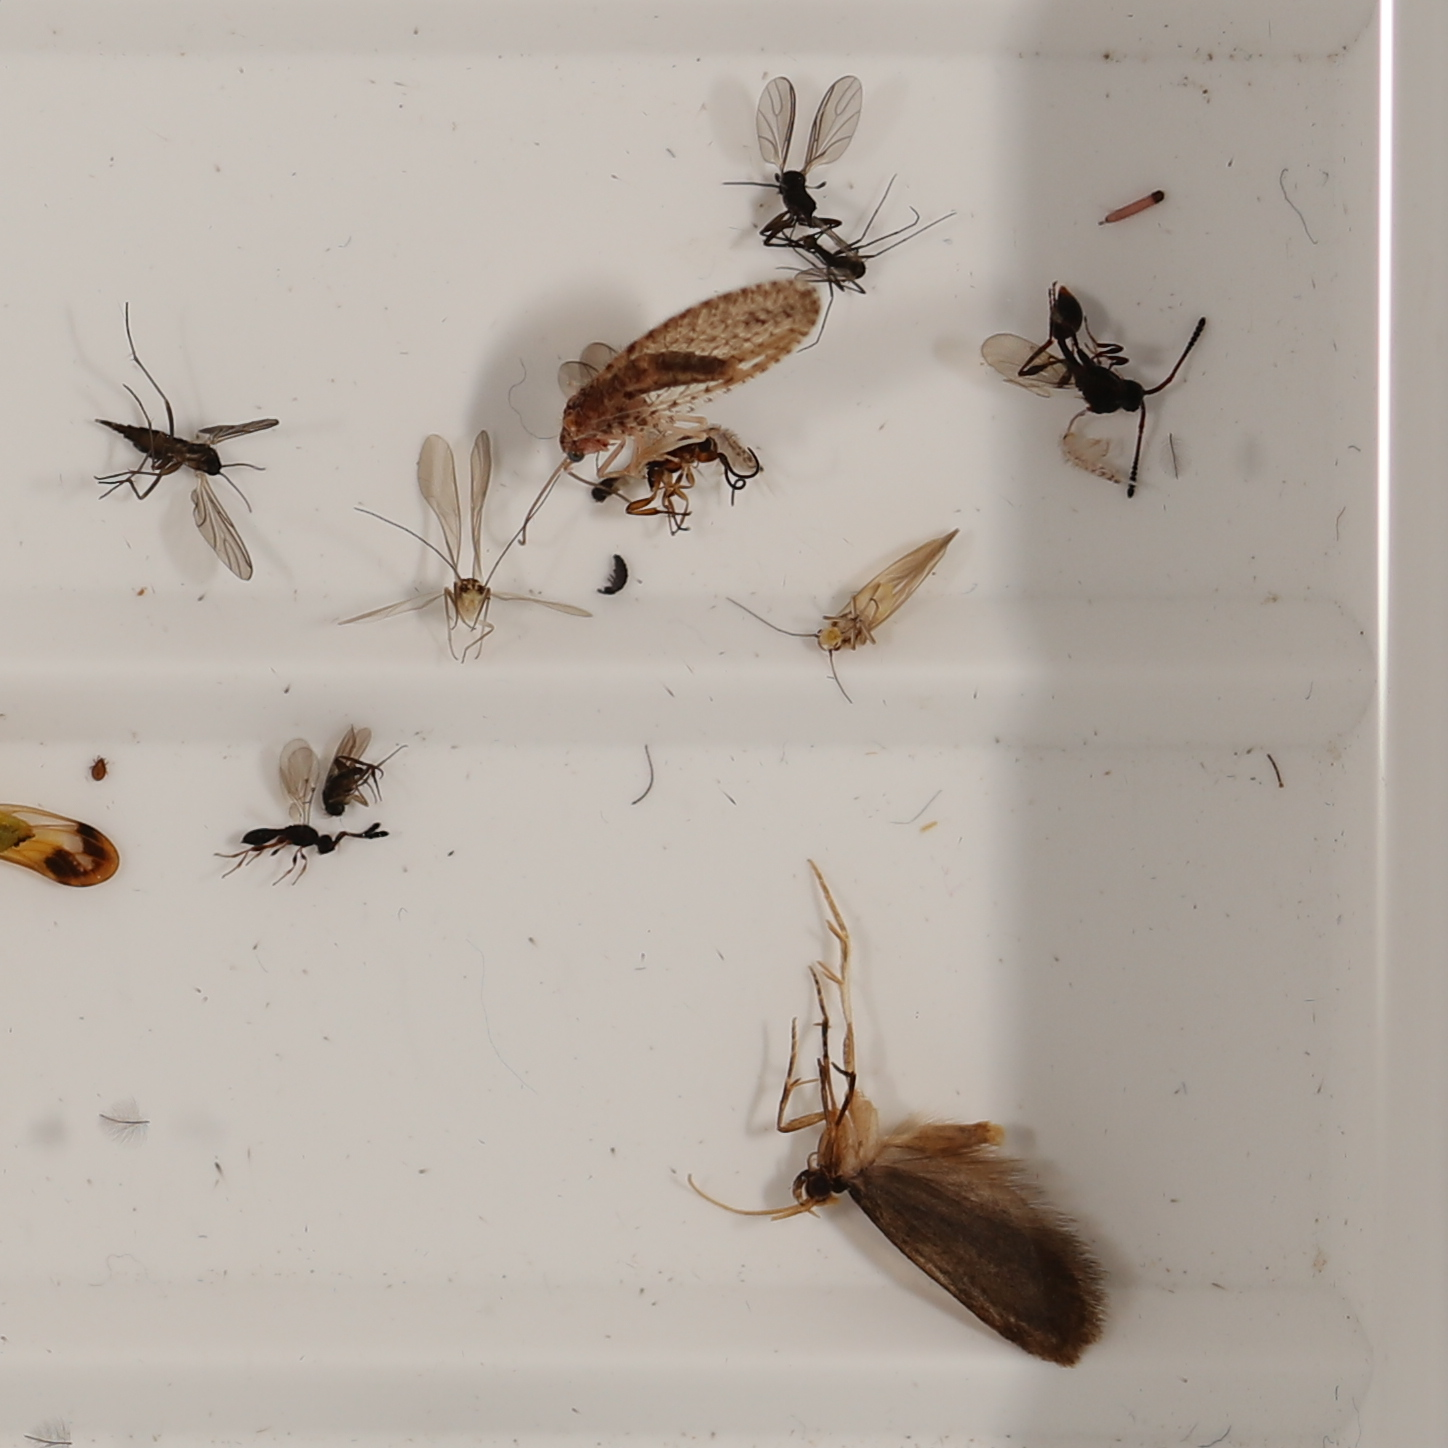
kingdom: Animalia
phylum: Arthropoda
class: Insecta
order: Neuroptera
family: Hemerobiidae
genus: Micromus
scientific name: Micromus tasmaniae
